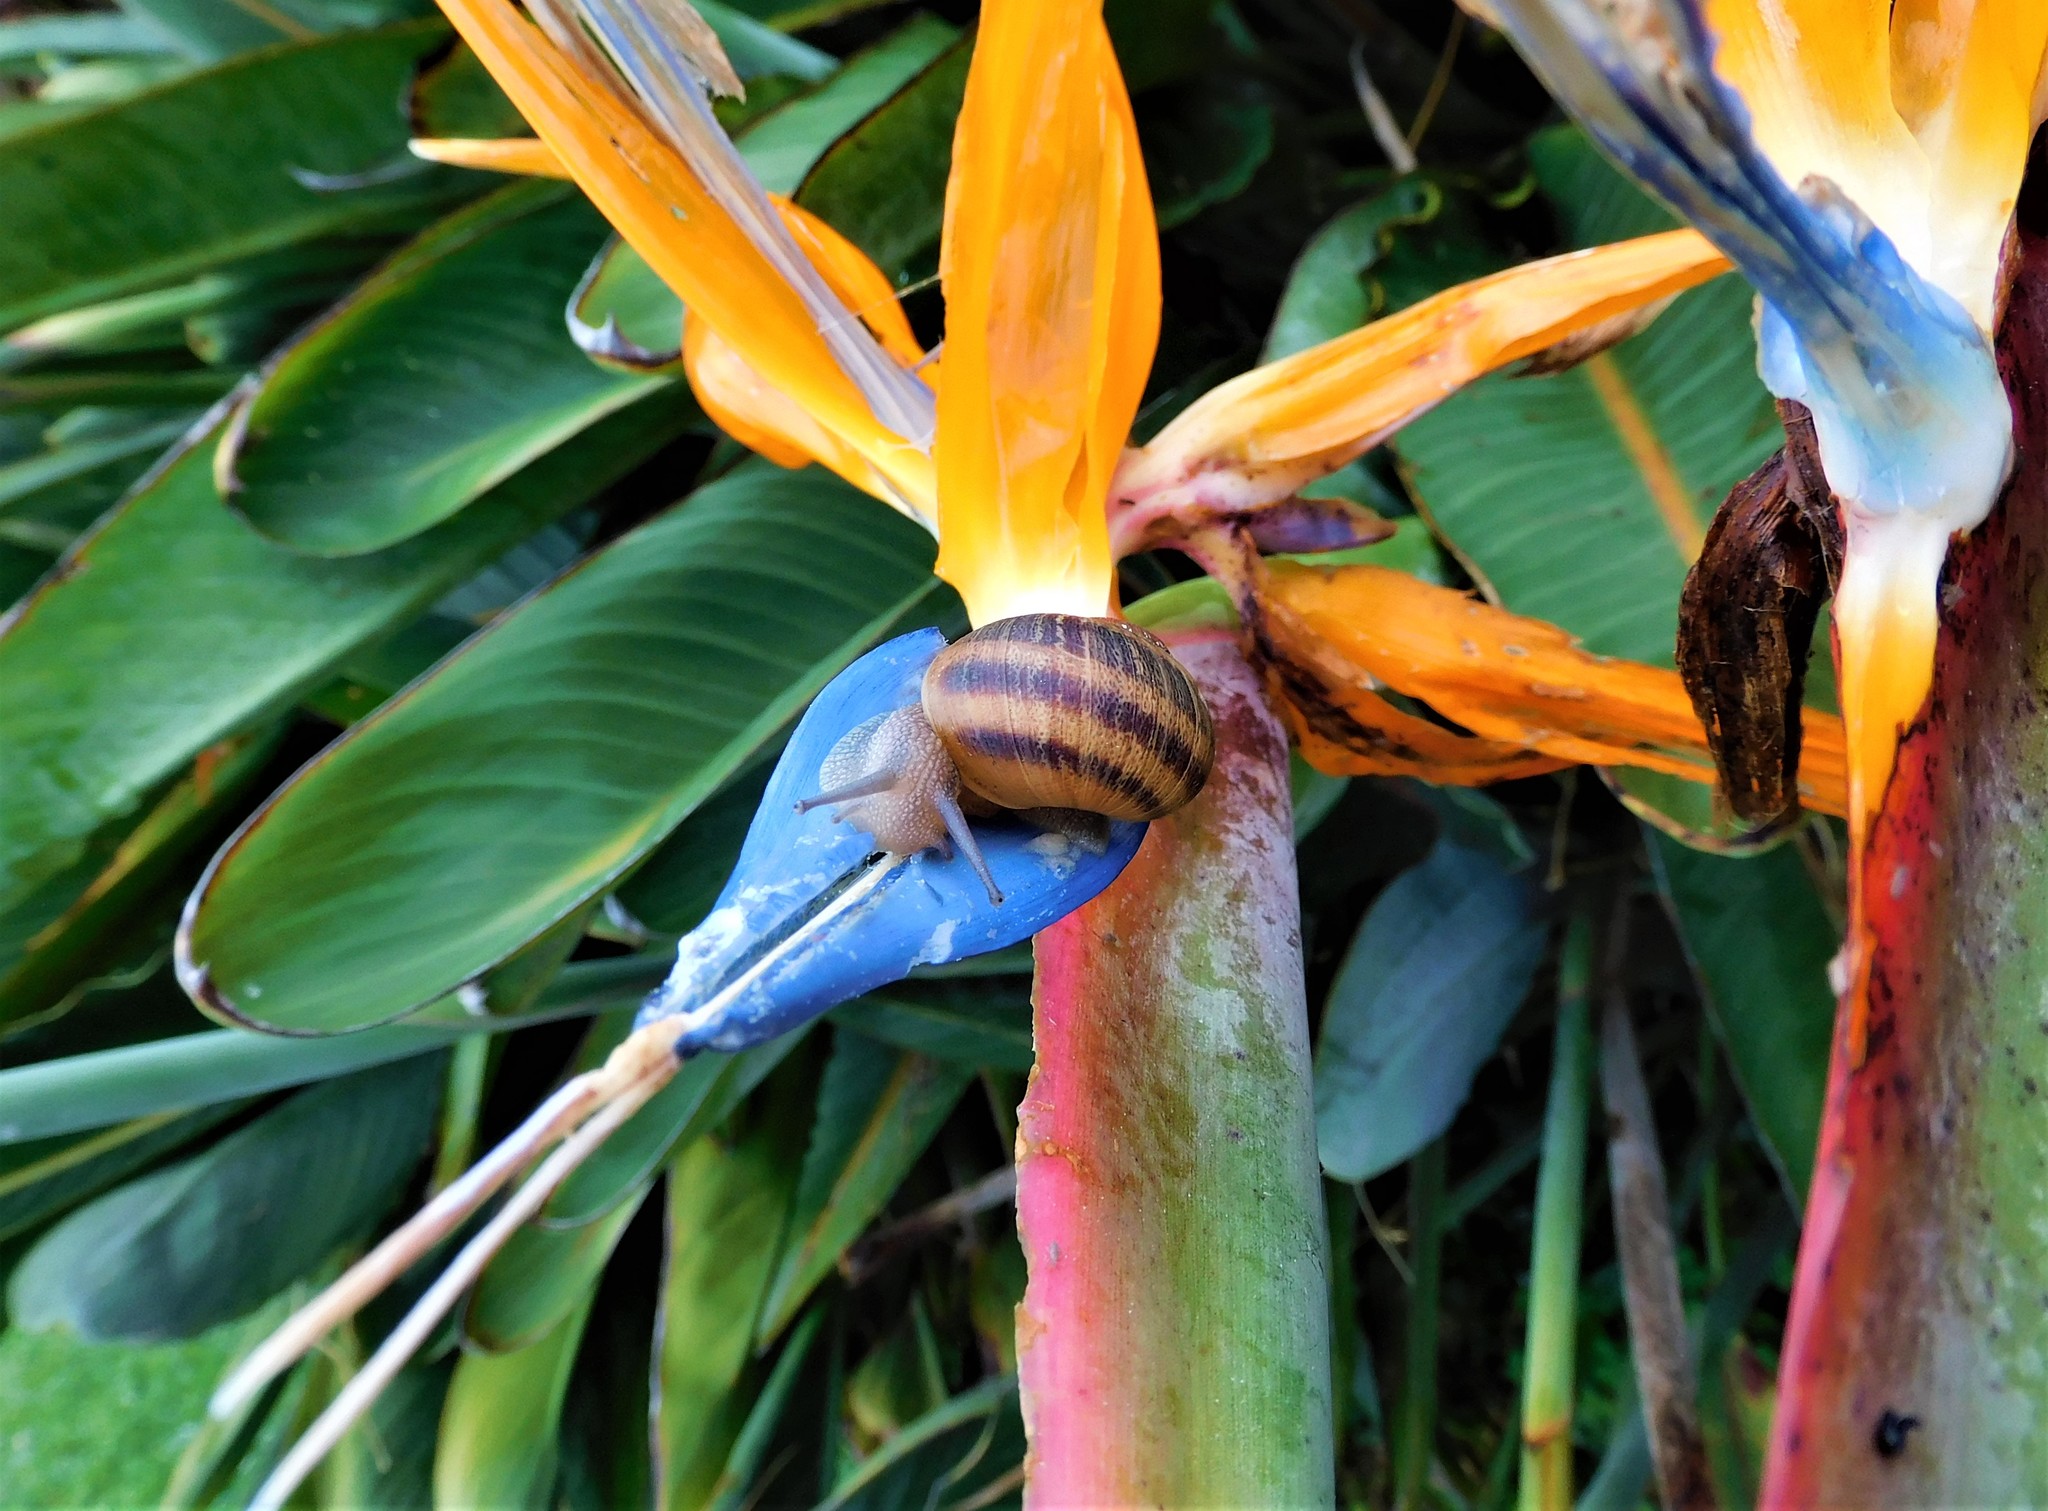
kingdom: Animalia
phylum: Mollusca
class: Gastropoda
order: Stylommatophora
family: Helicidae
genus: Cornu
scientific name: Cornu aspersum
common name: Brown garden snail
